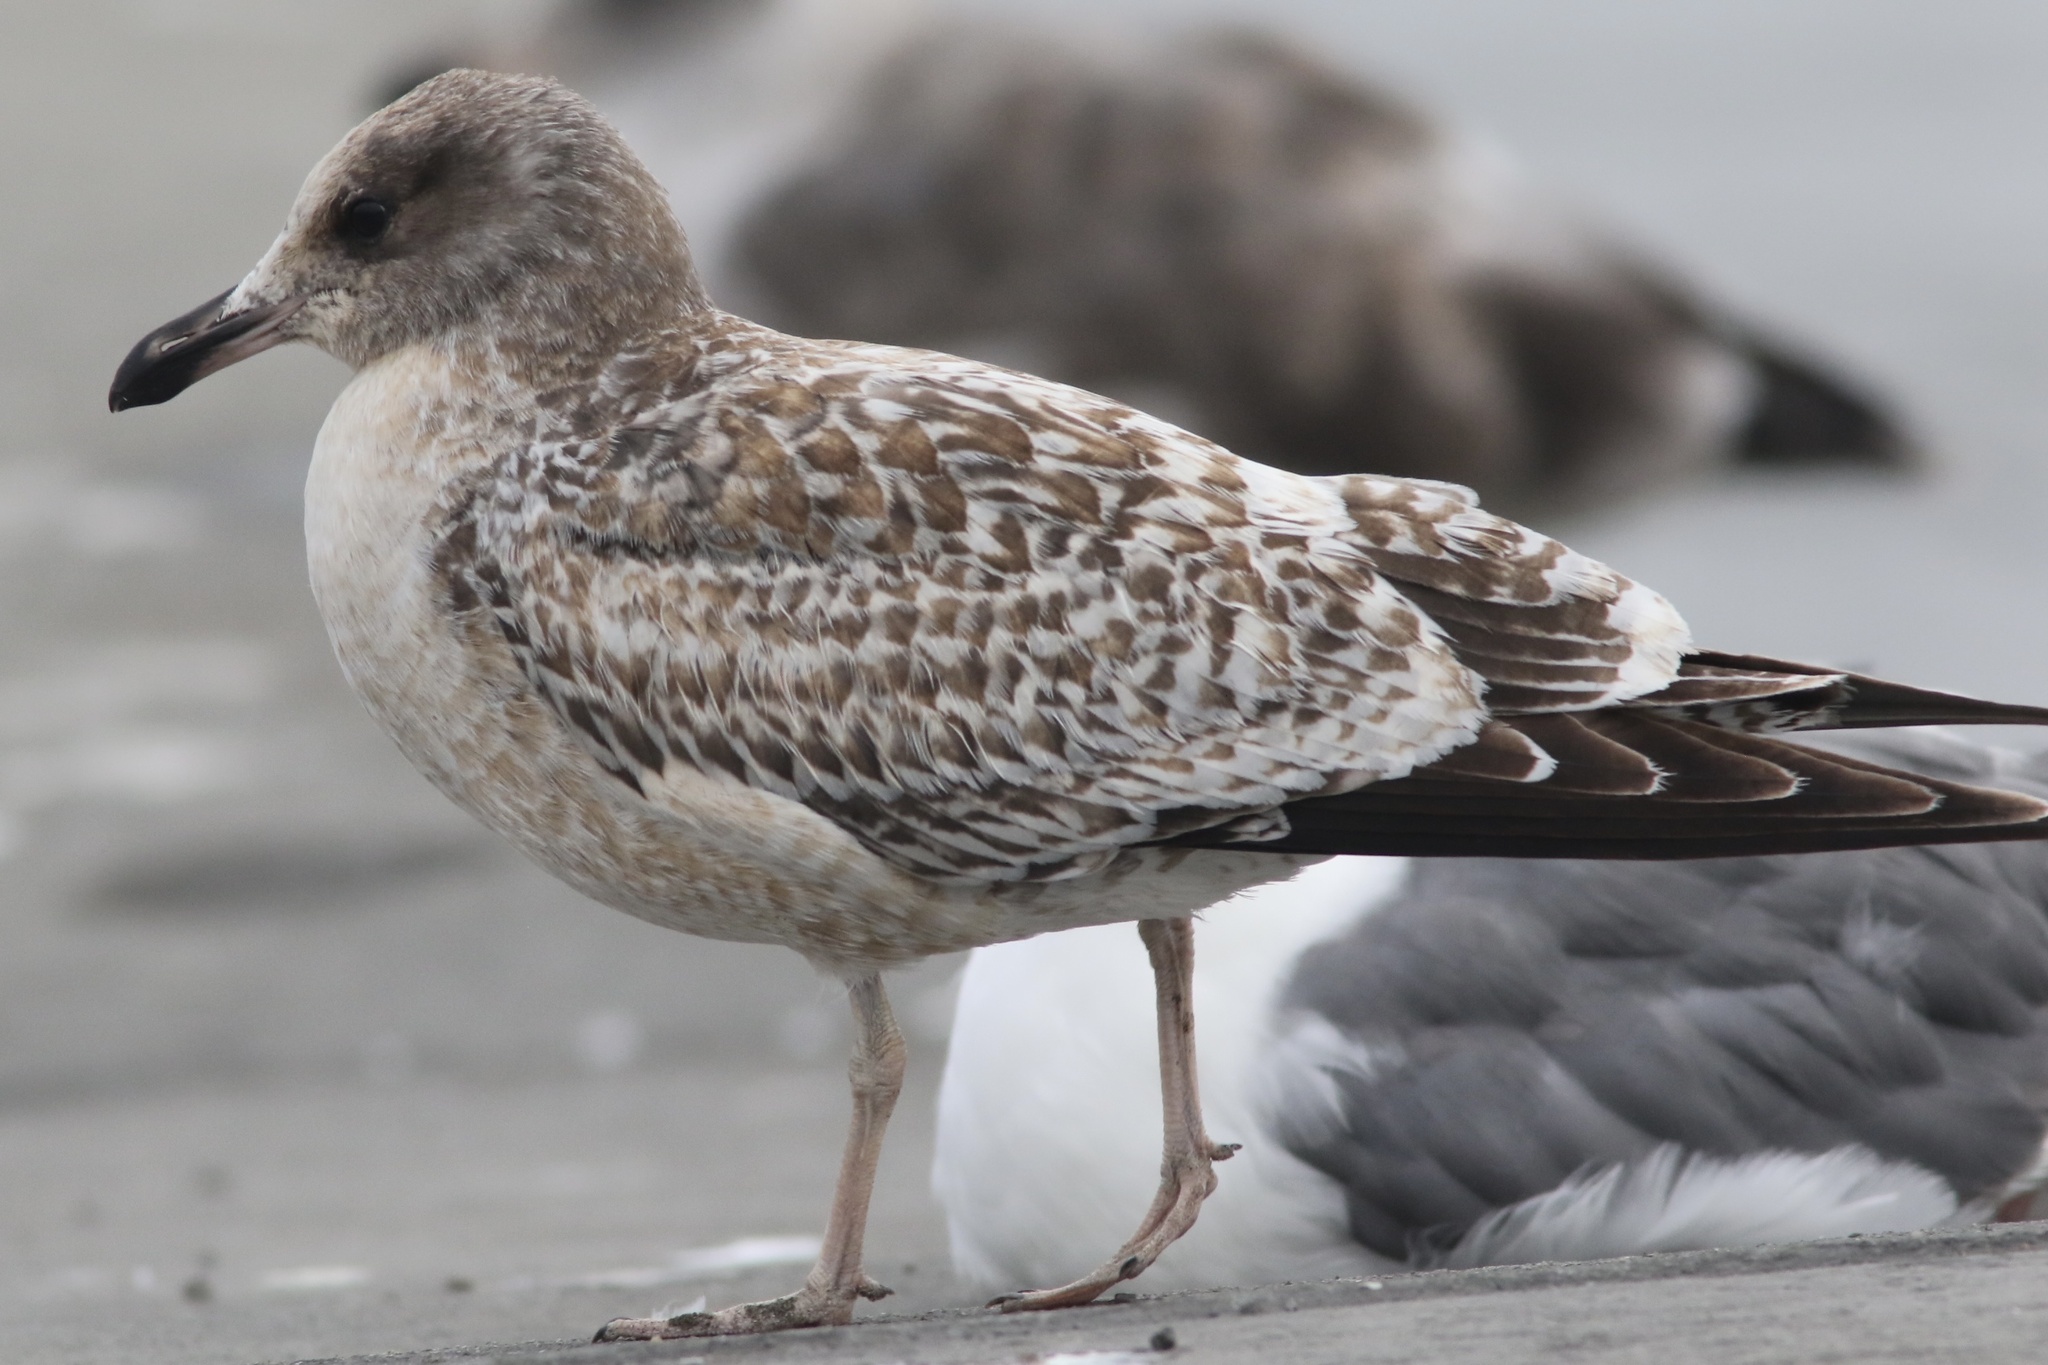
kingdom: Animalia
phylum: Chordata
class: Aves
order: Charadriiformes
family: Laridae
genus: Larus
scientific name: Larus californicus
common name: California gull
